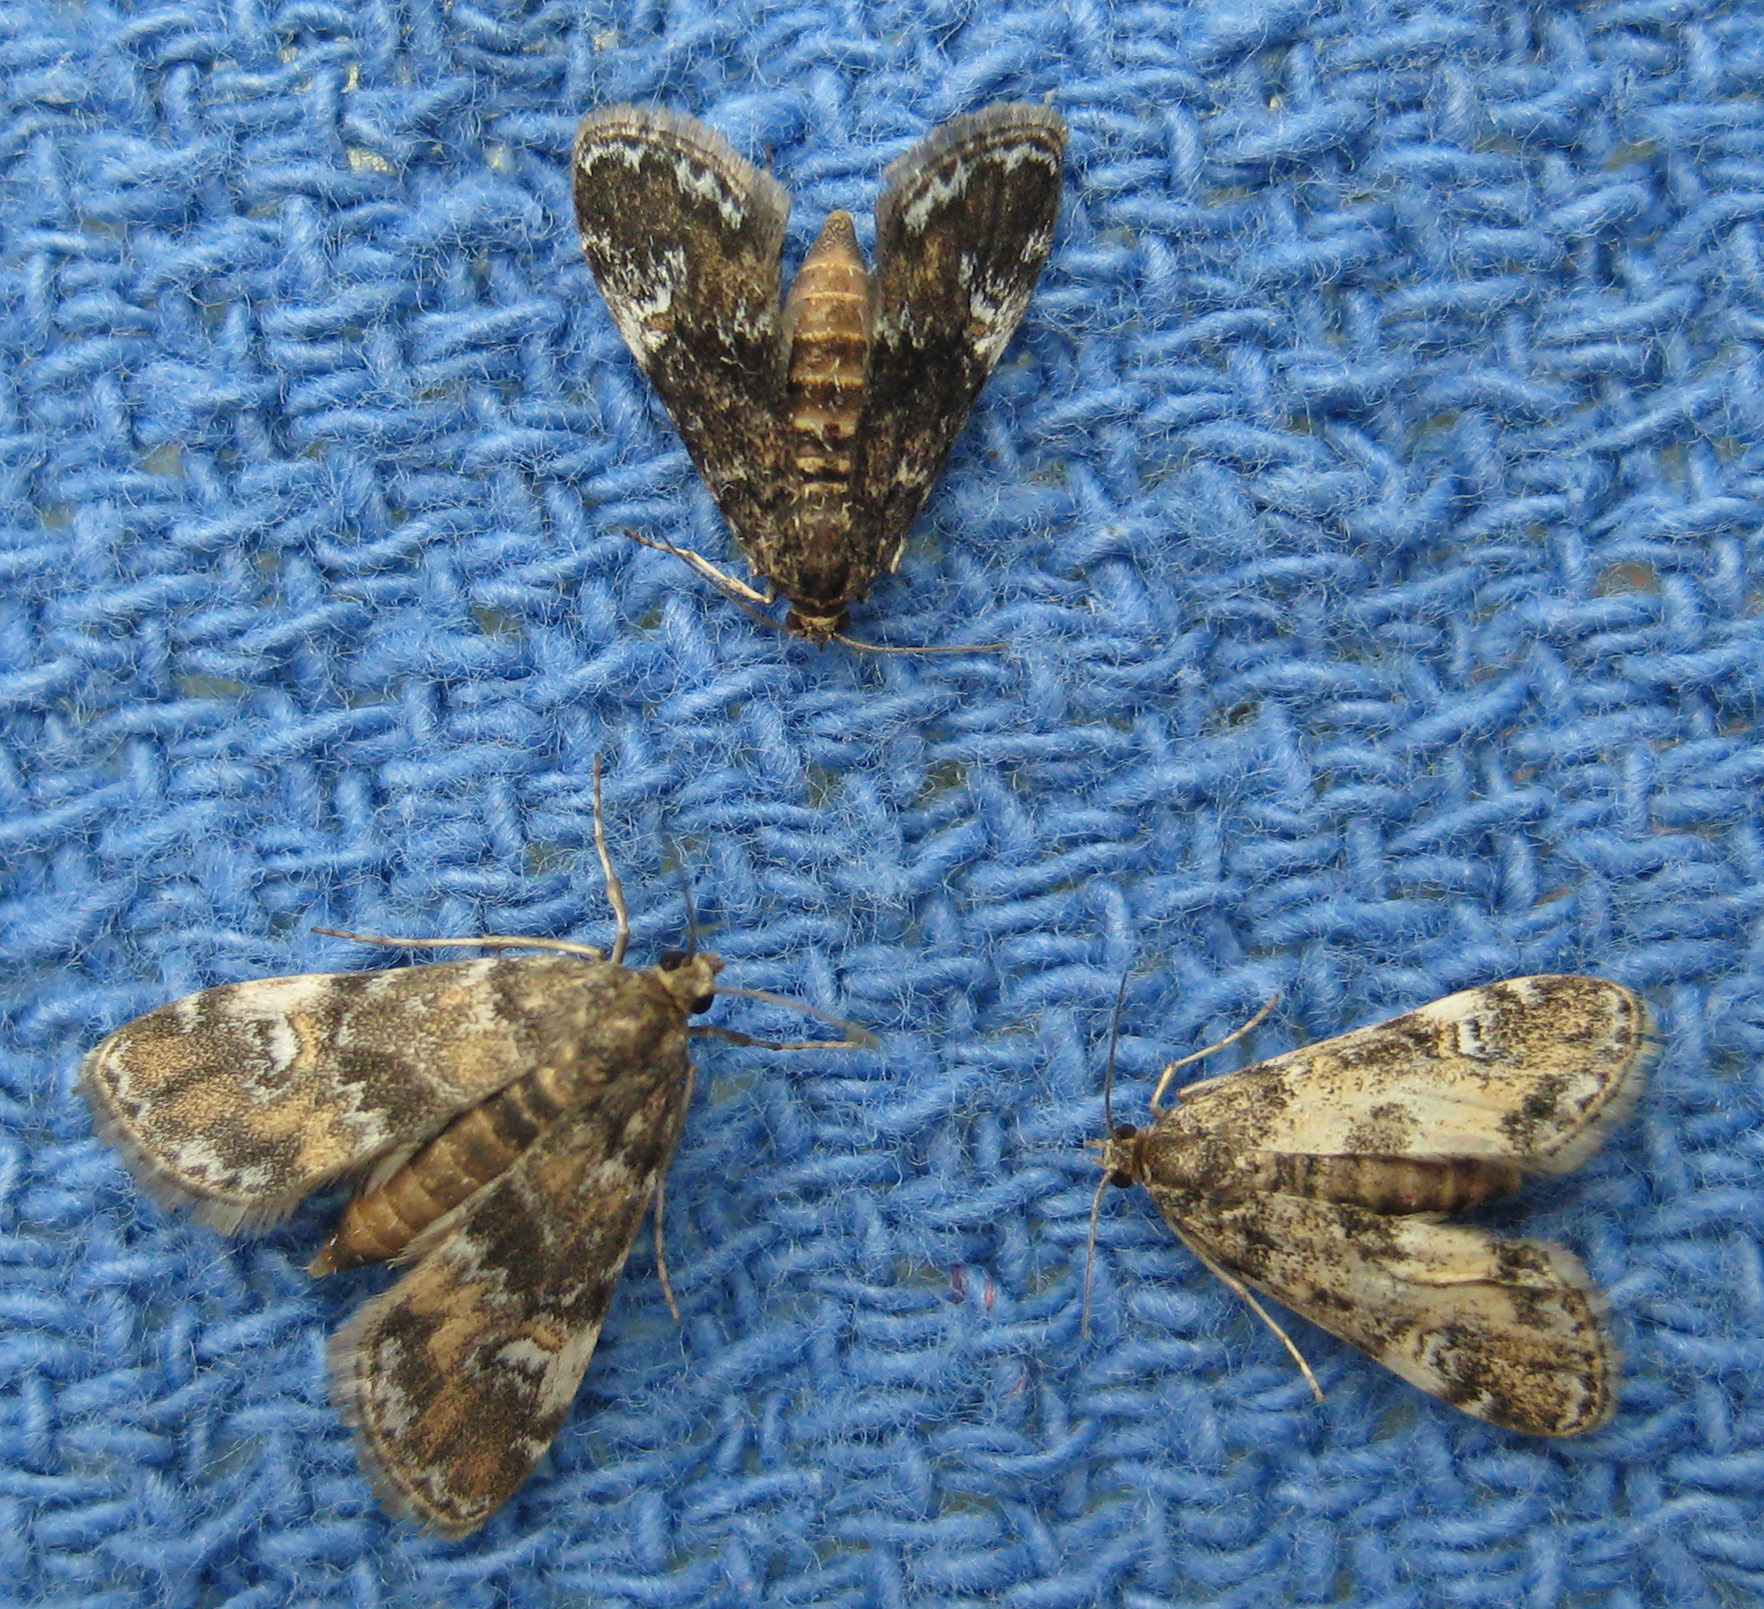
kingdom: Animalia
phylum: Arthropoda
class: Insecta
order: Lepidoptera
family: Crambidae
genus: Elophila
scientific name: Elophila obliteralis
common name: Waterlily leafcutter moth
